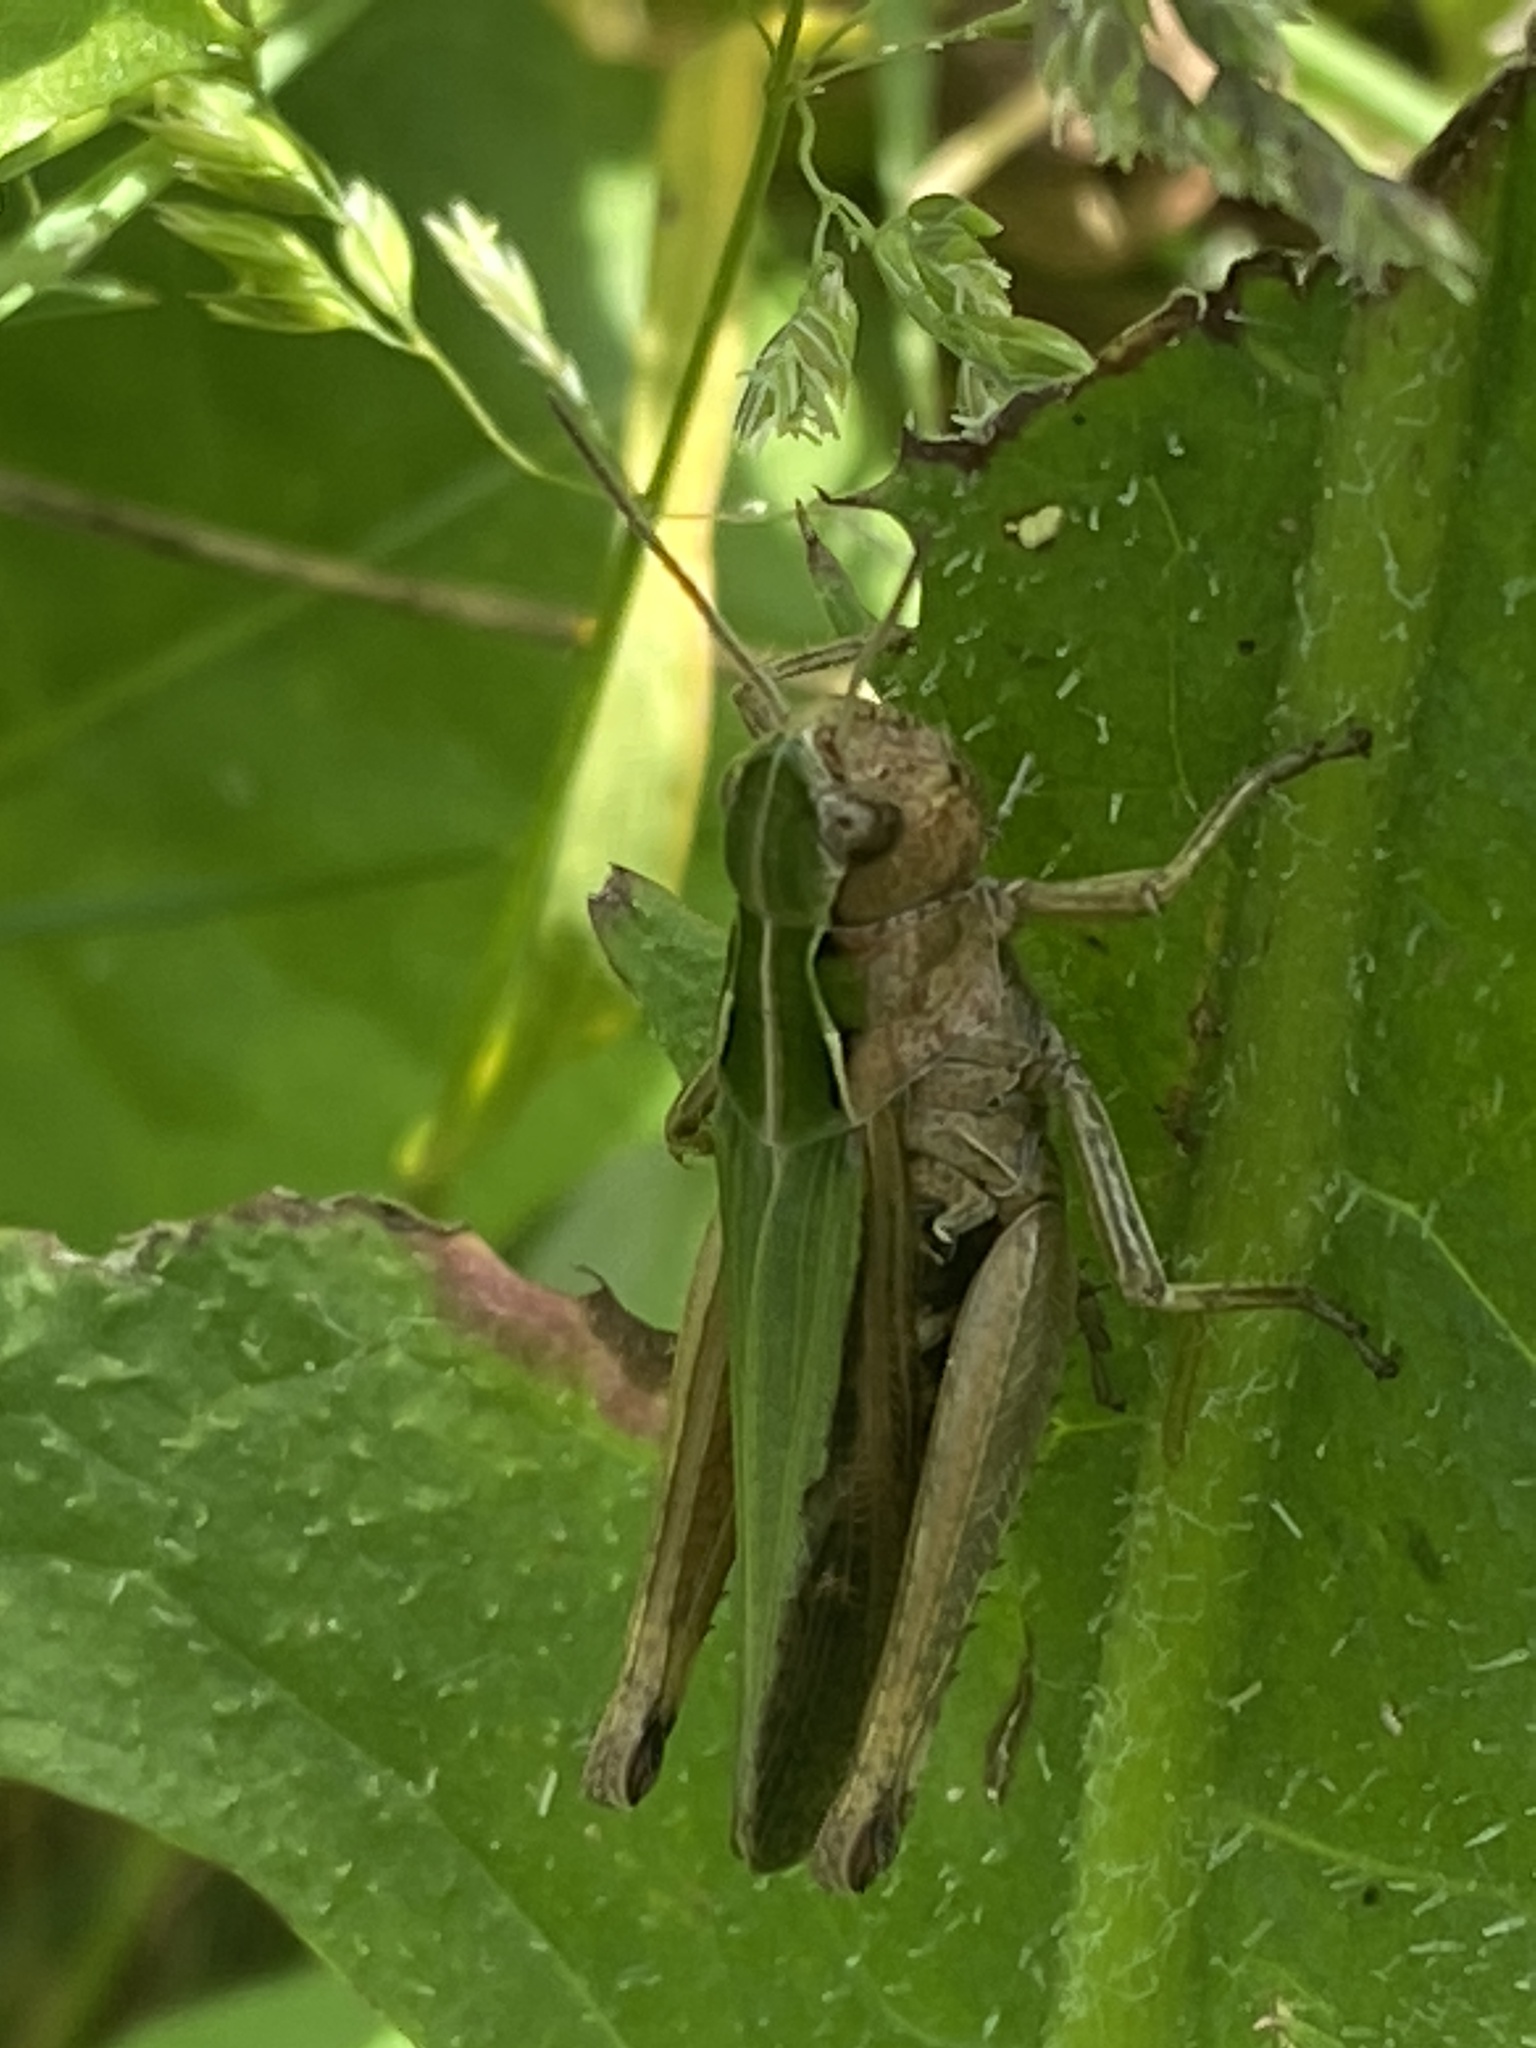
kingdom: Animalia
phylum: Arthropoda
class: Insecta
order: Orthoptera
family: Acrididae
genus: Omocestus
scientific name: Omocestus viridulus
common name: Common green grasshopper
